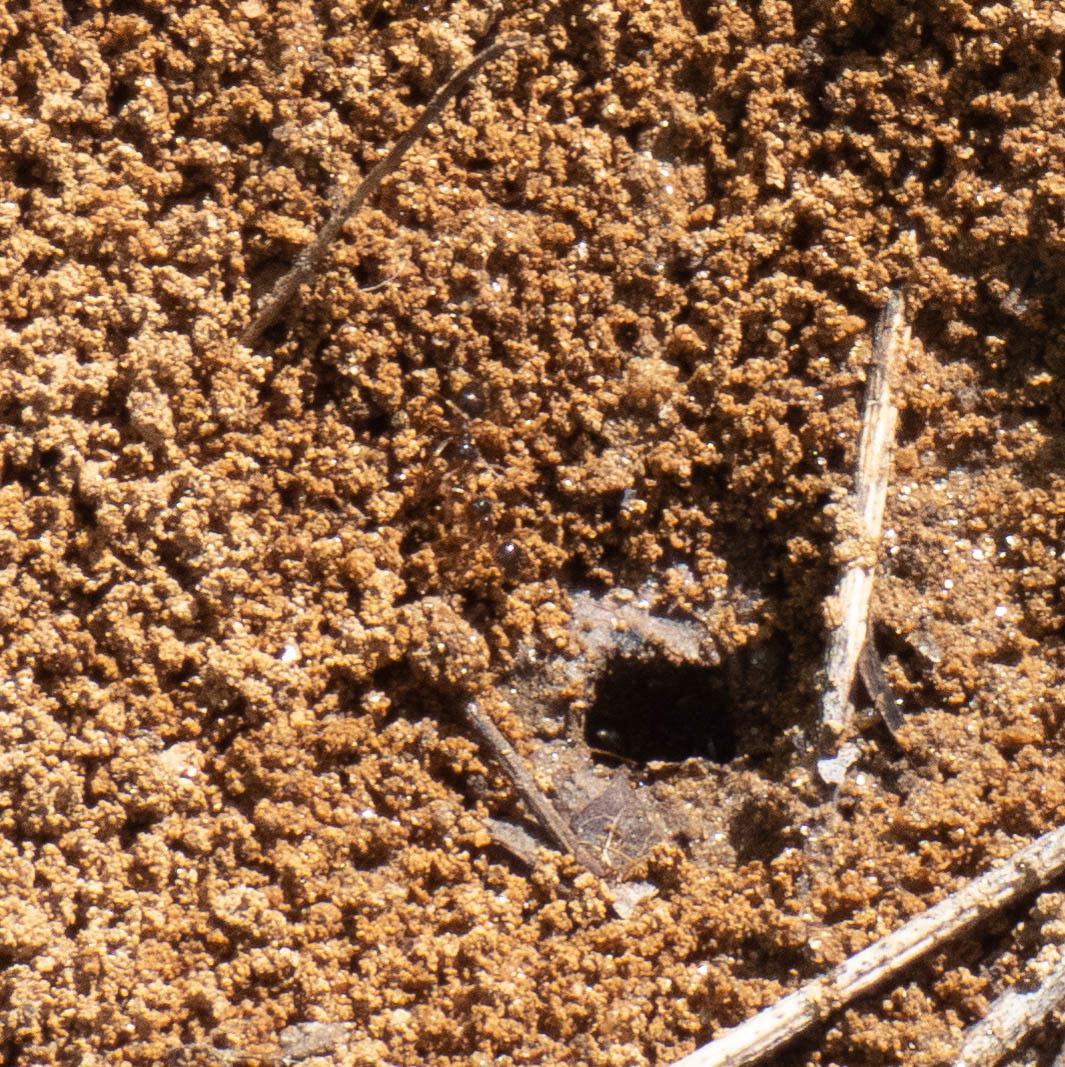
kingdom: Animalia
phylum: Arthropoda
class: Insecta
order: Hymenoptera
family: Formicidae
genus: Prenolepis
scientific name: Prenolepis imparis
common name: Small honey ant
